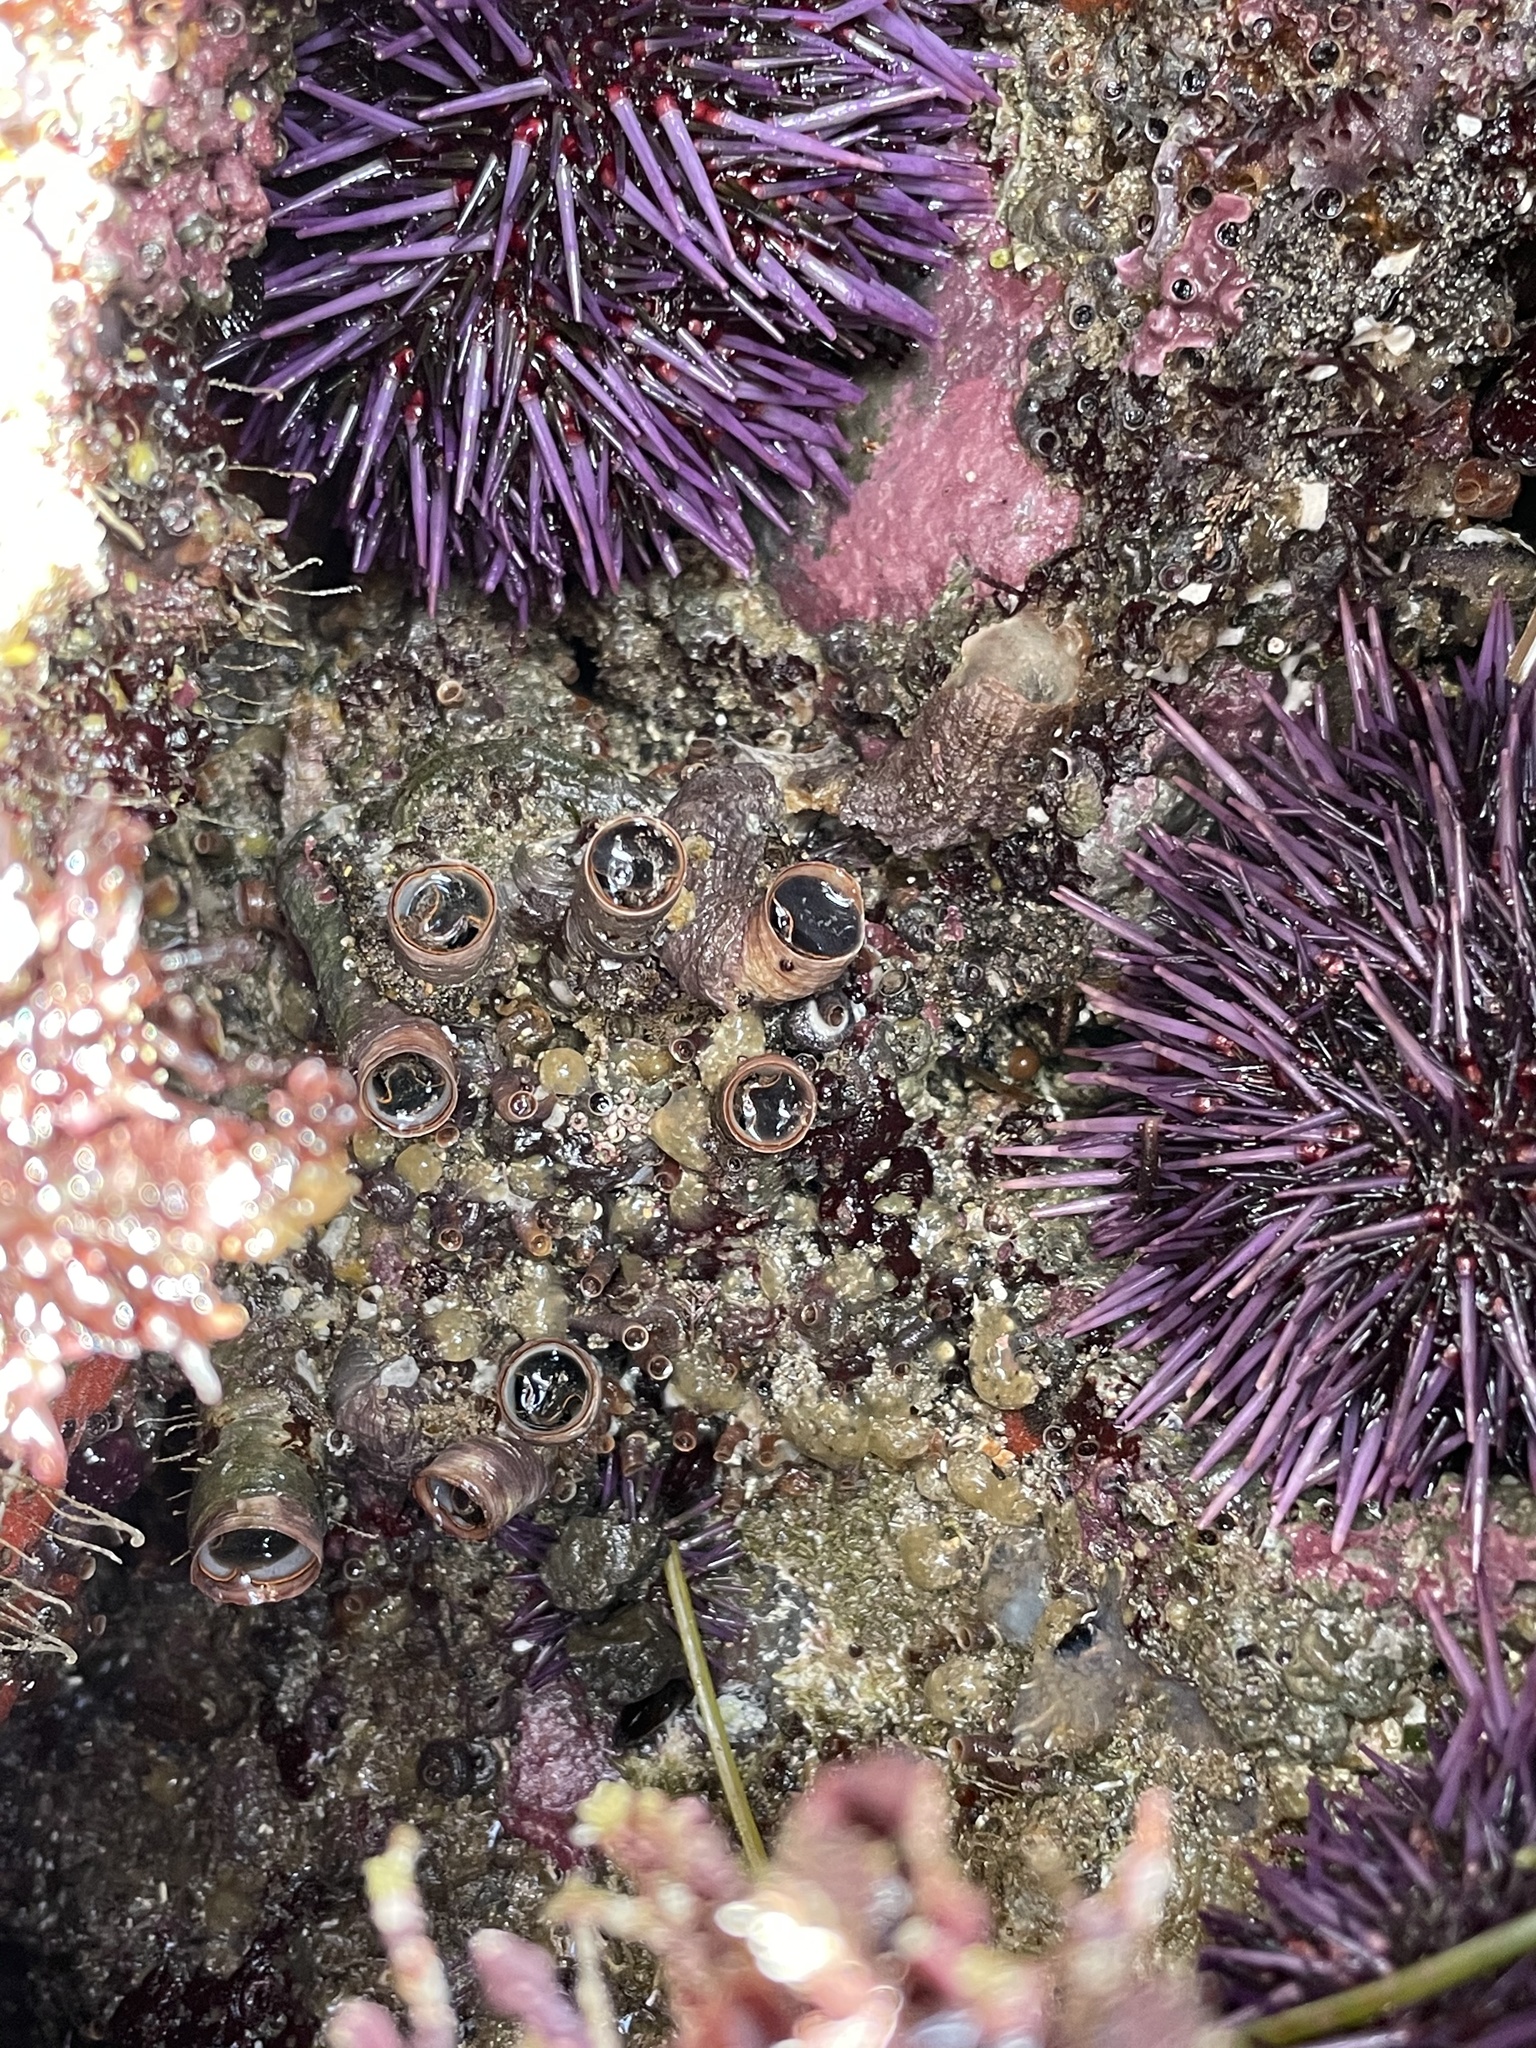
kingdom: Animalia
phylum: Echinodermata
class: Echinoidea
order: Camarodonta
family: Strongylocentrotidae
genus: Strongylocentrotus
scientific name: Strongylocentrotus purpuratus
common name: Purple sea urchin
